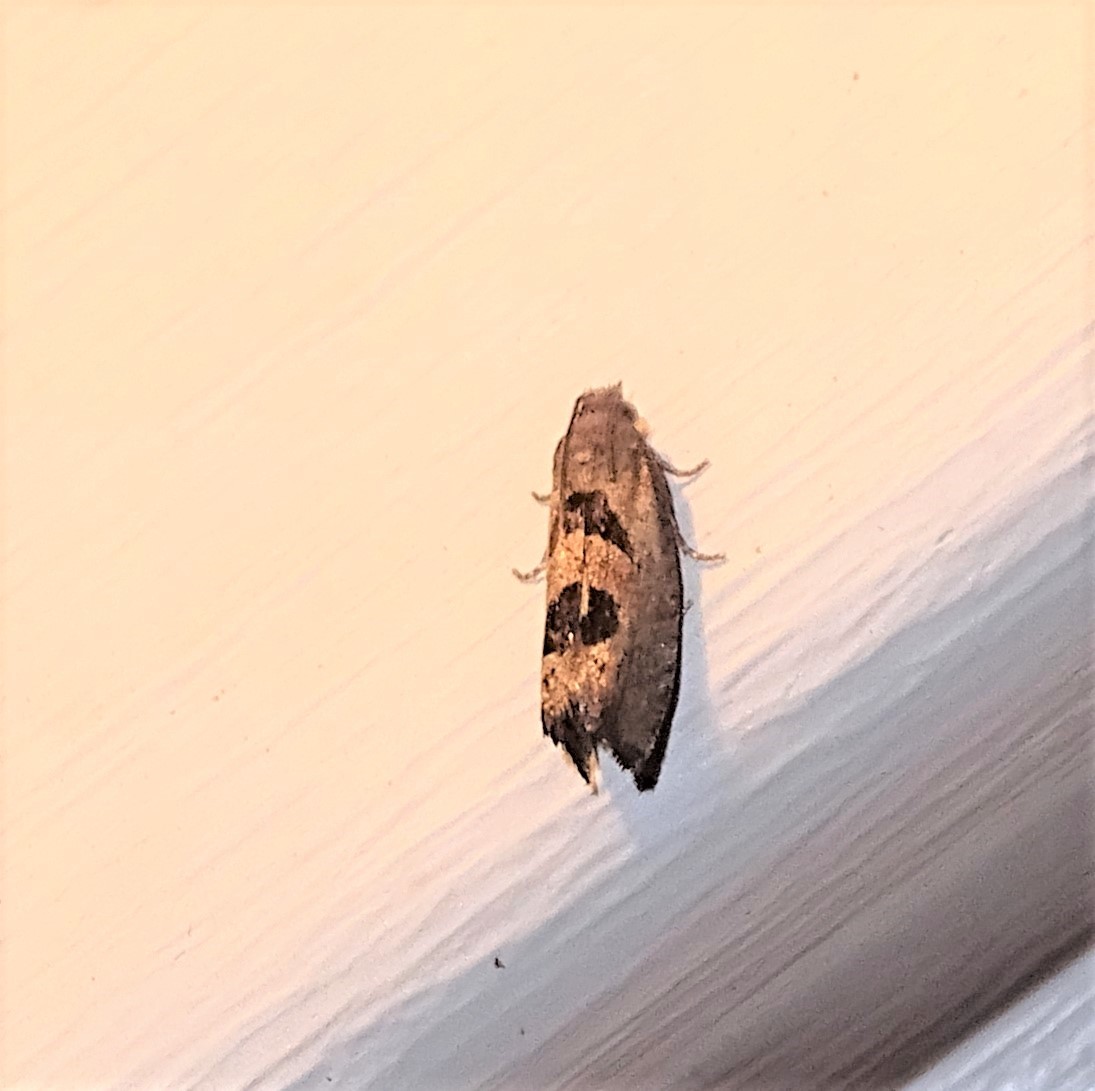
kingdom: Animalia
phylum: Arthropoda
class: Insecta
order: Lepidoptera
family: Tortricidae
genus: Eucosma
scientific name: Eucosma tomonana
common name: Aster-head eucosma moth
